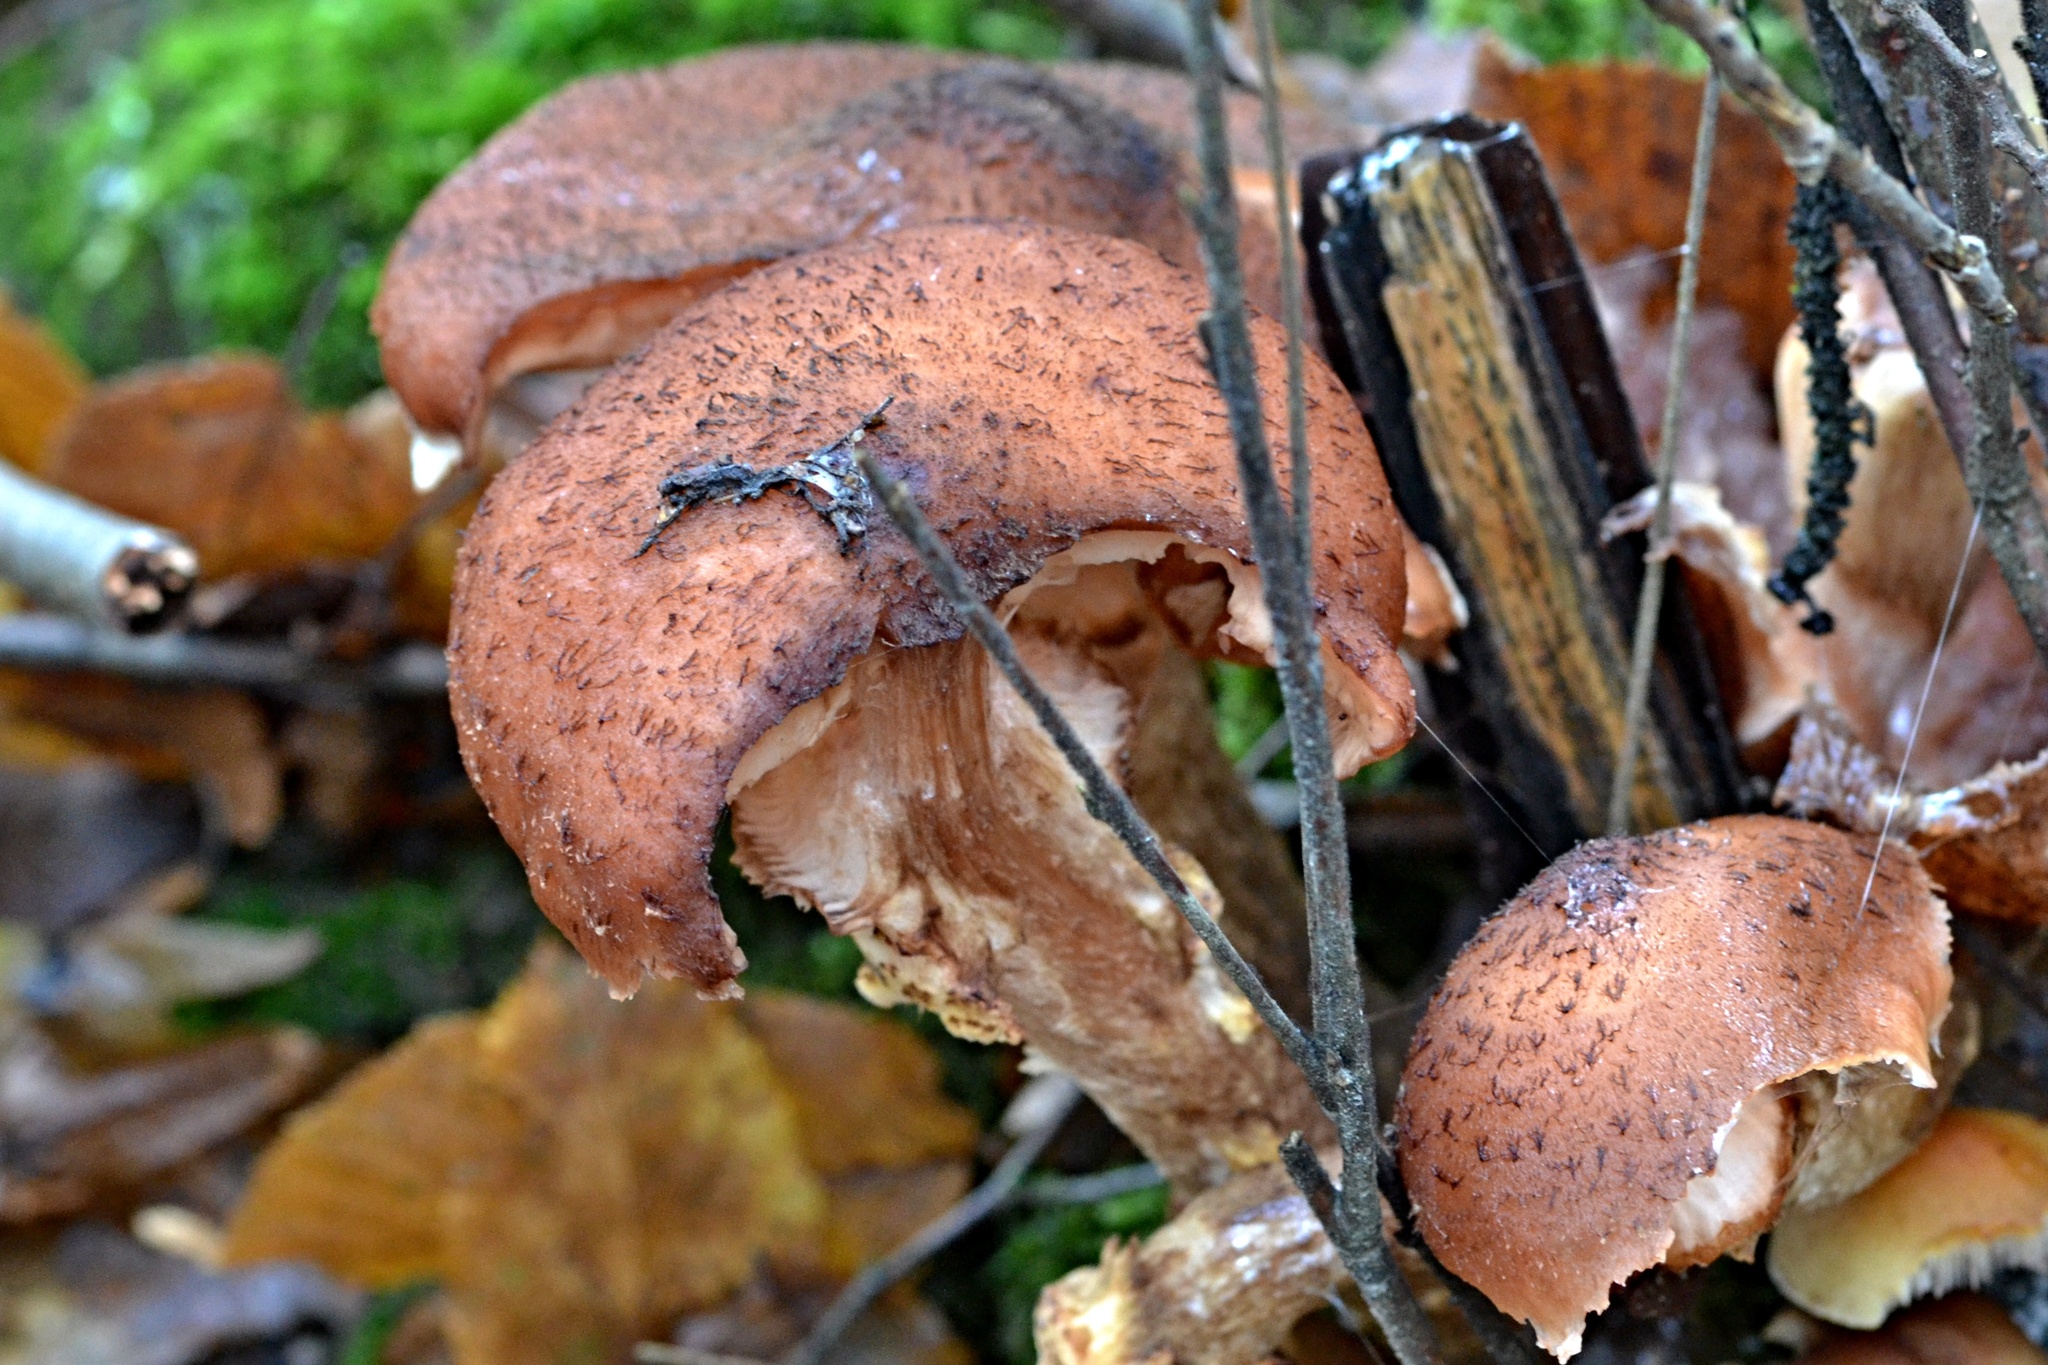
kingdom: Fungi
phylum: Basidiomycota
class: Agaricomycetes
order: Agaricales
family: Physalacriaceae
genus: Armillaria
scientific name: Armillaria ostoyae
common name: Dark honey fungus
